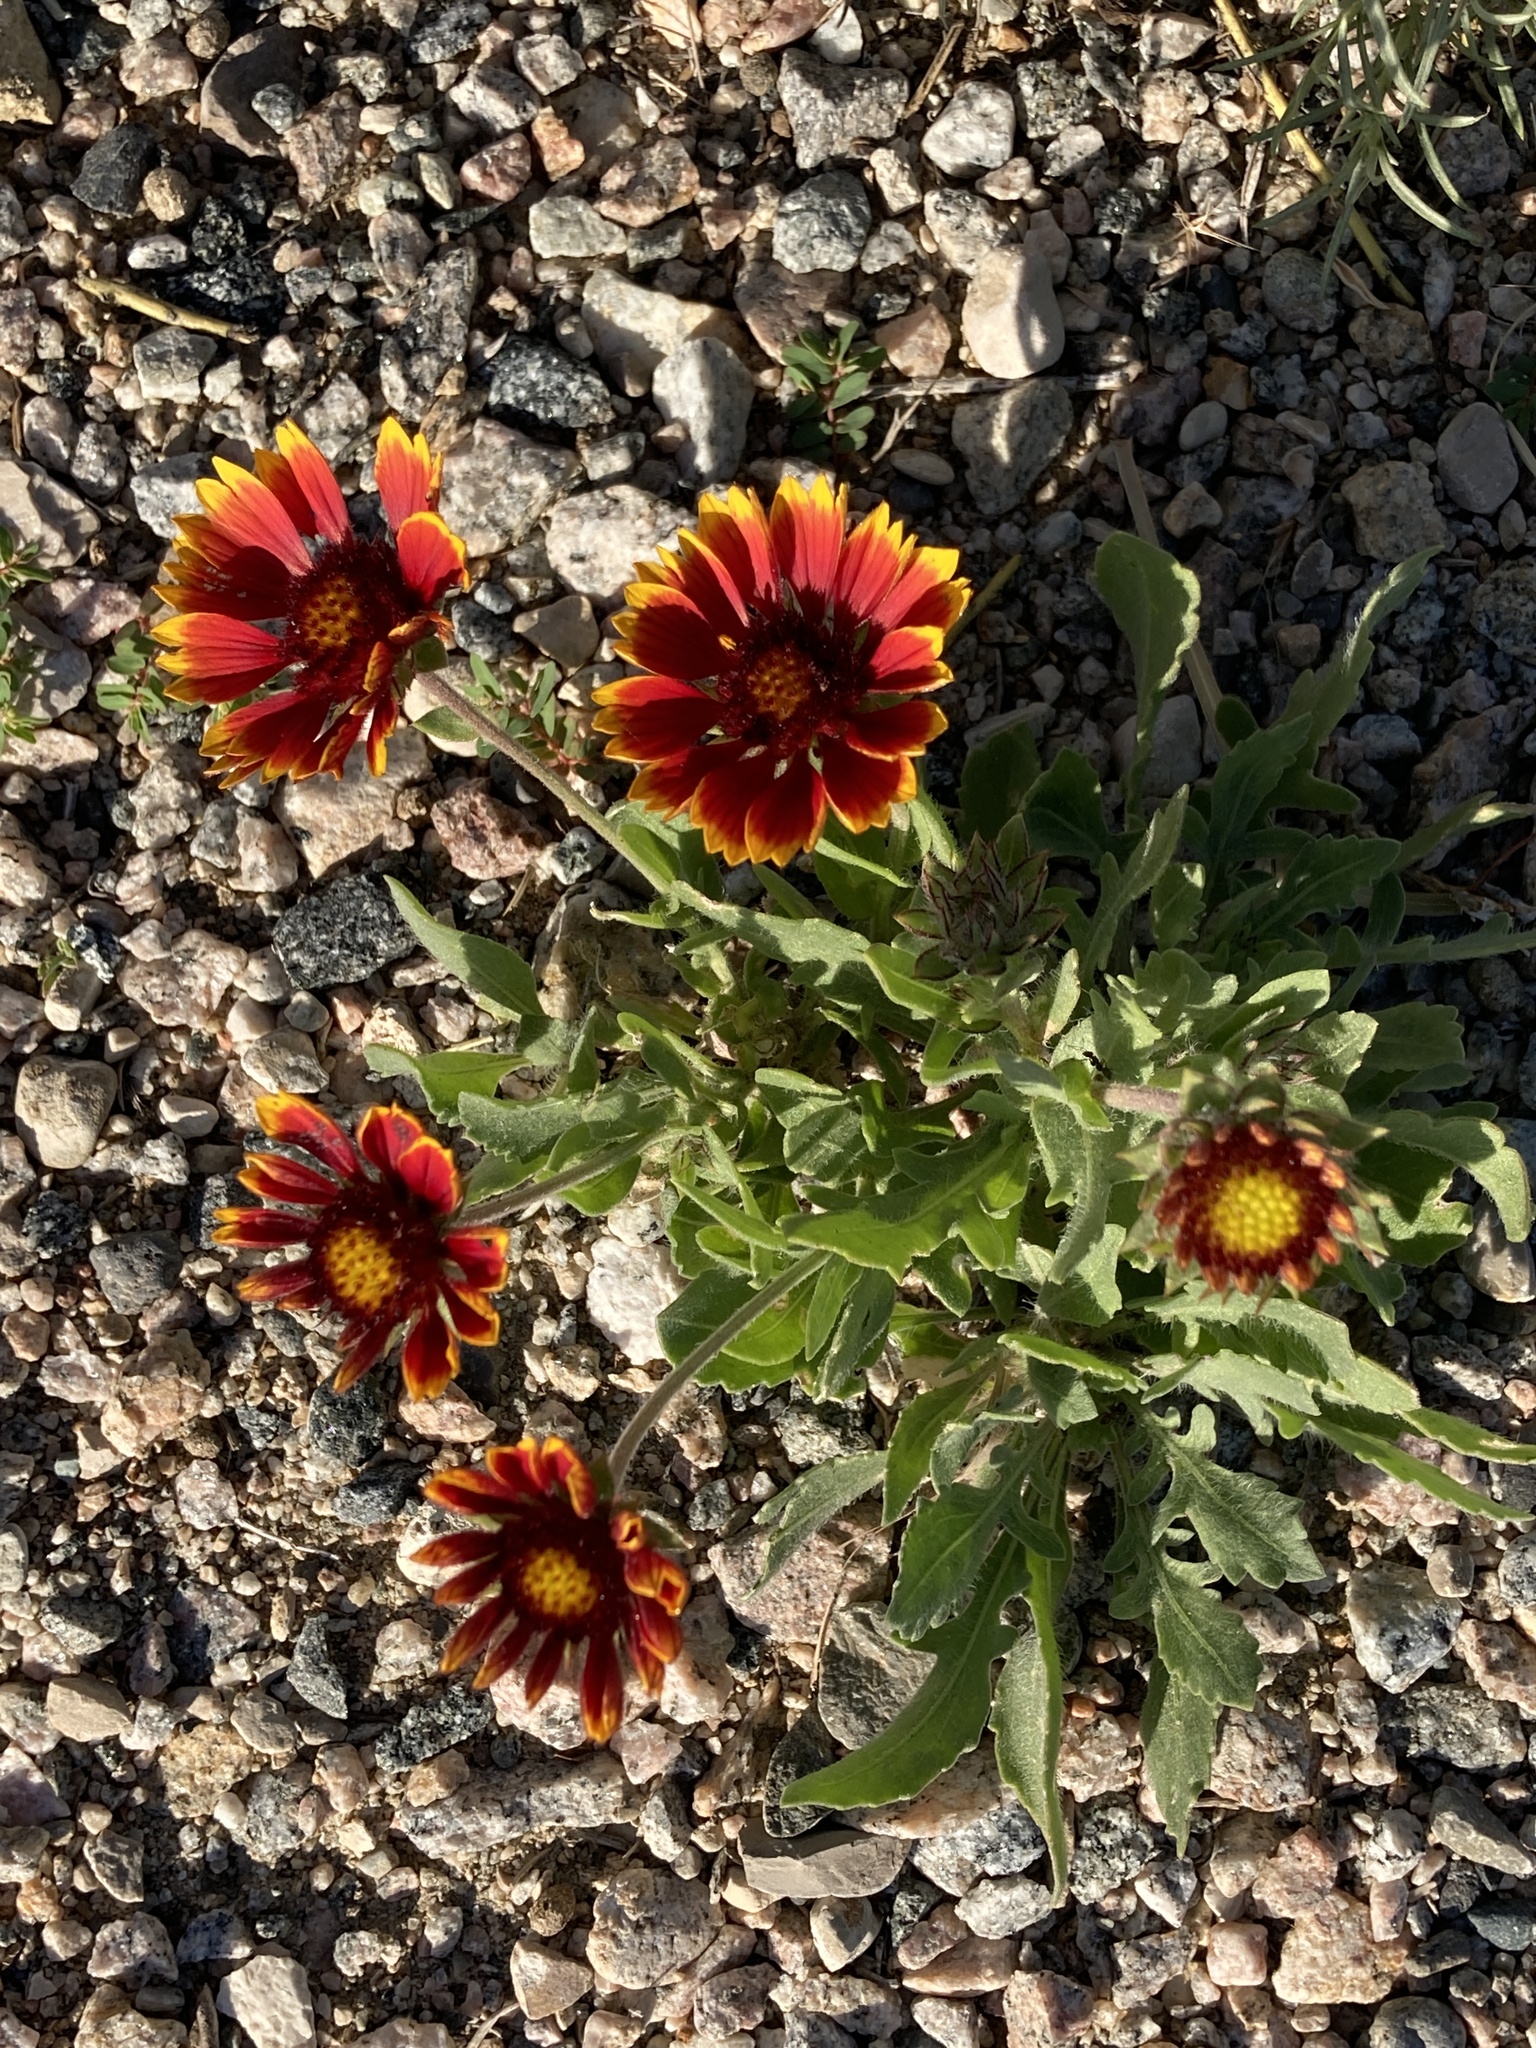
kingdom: Plantae
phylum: Tracheophyta
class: Magnoliopsida
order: Asterales
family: Asteraceae
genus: Gaillardia
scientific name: Gaillardia aristata
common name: Blanket-flower
